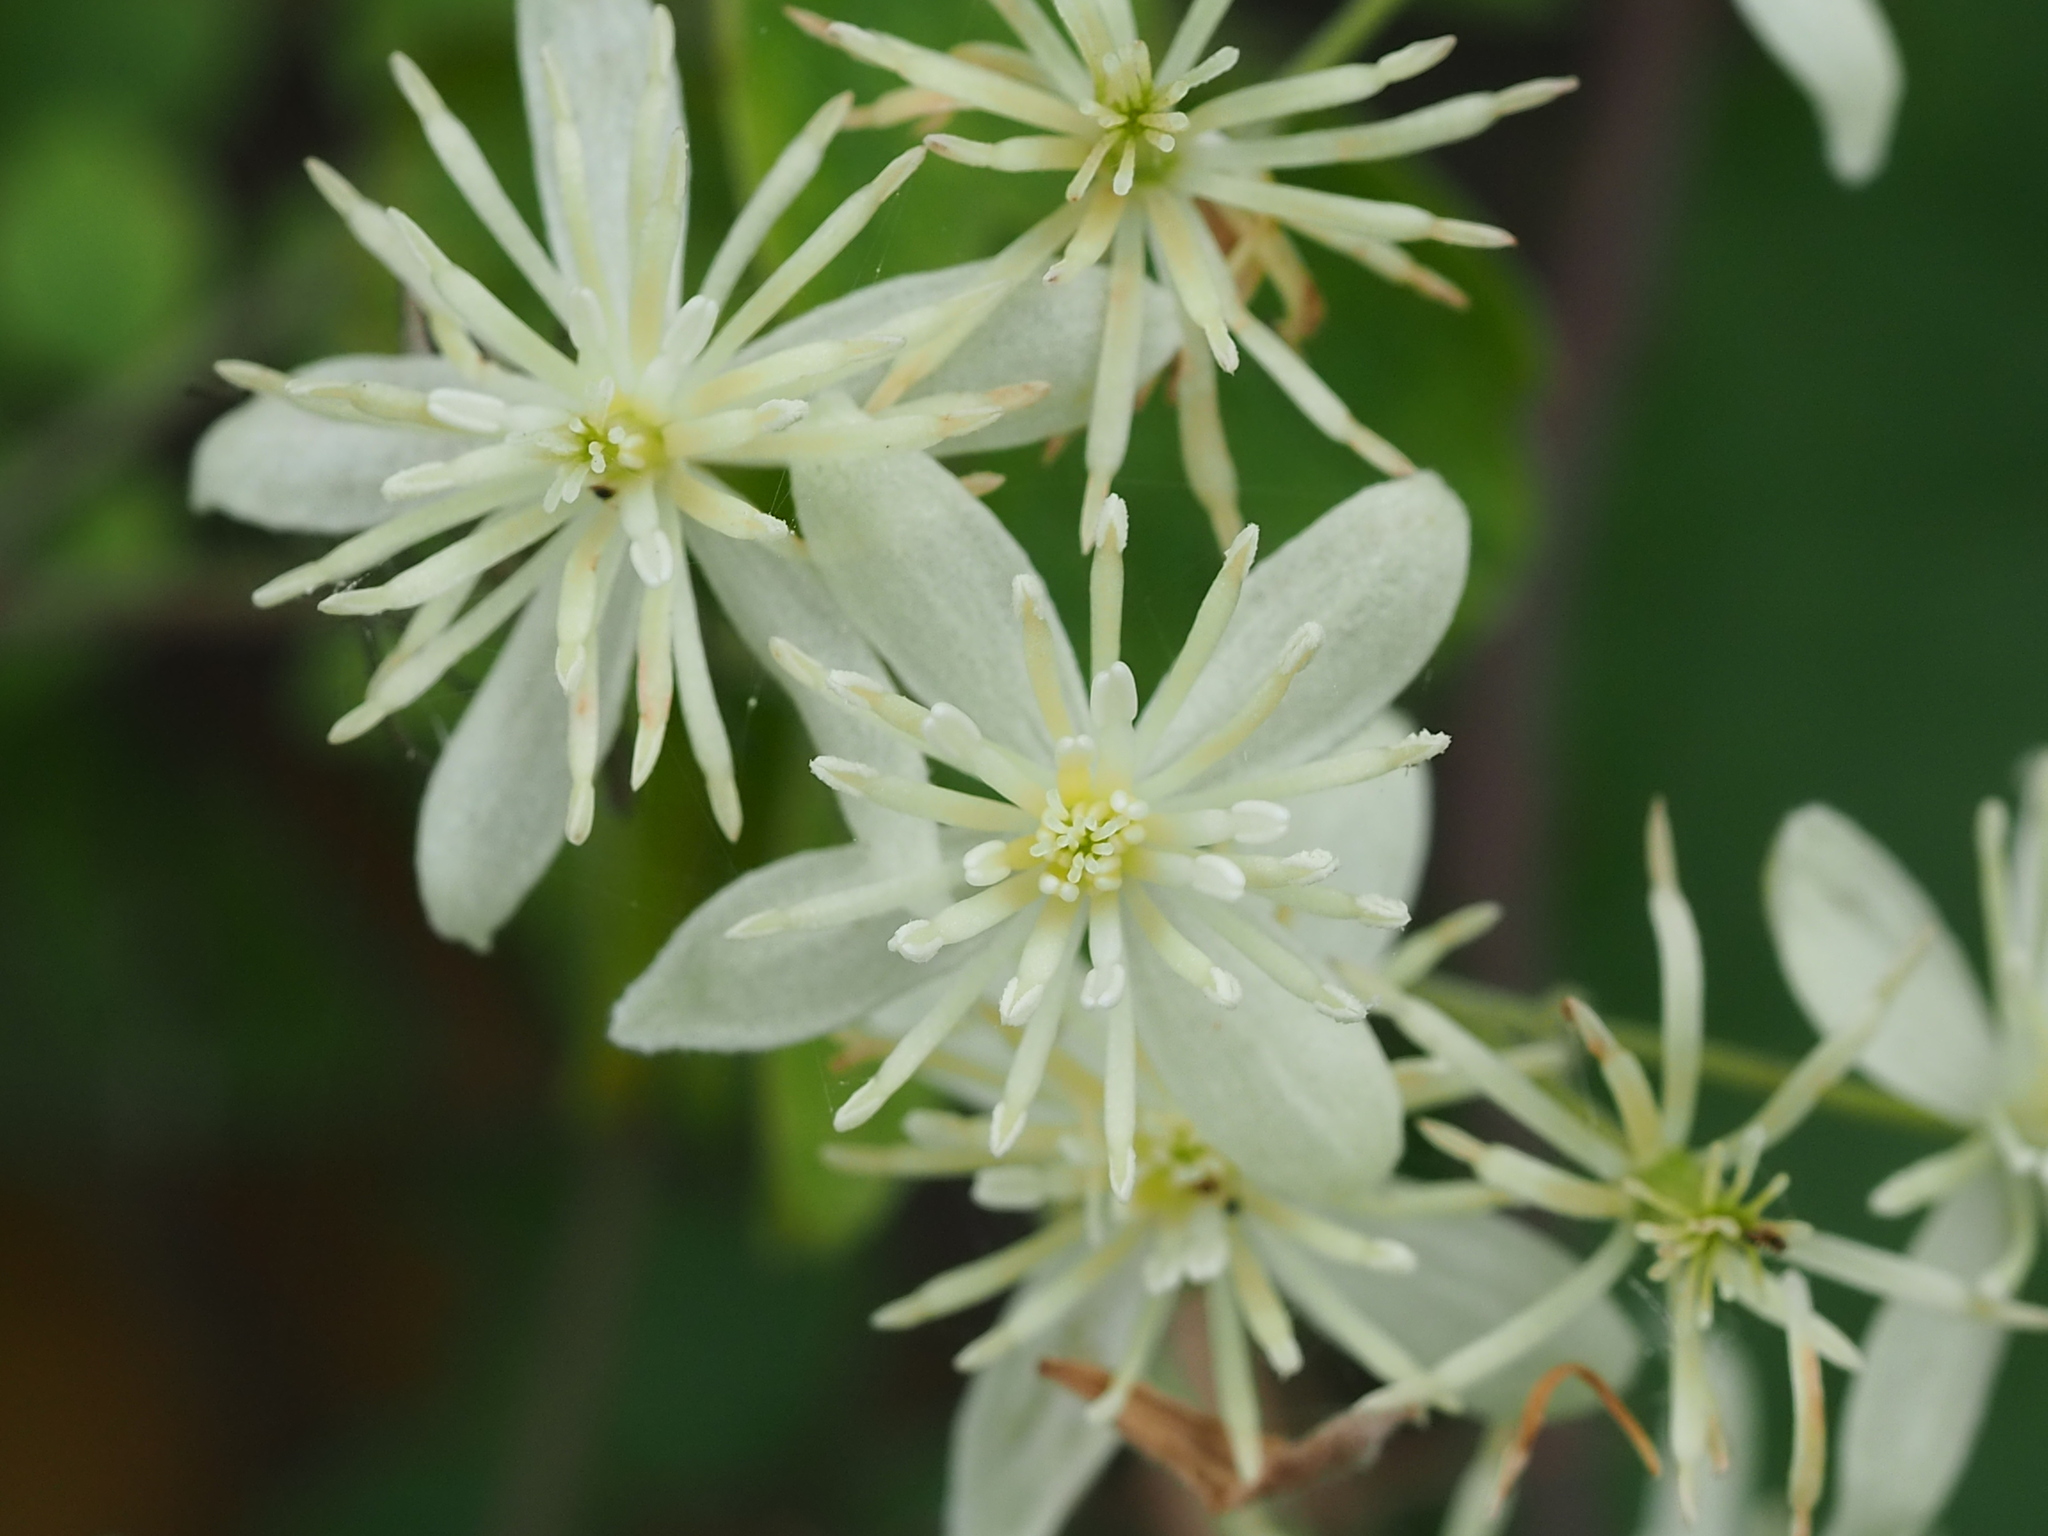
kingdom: Plantae
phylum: Tracheophyta
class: Magnoliopsida
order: Ranunculales
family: Ranunculaceae
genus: Clematis
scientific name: Clematis grata
